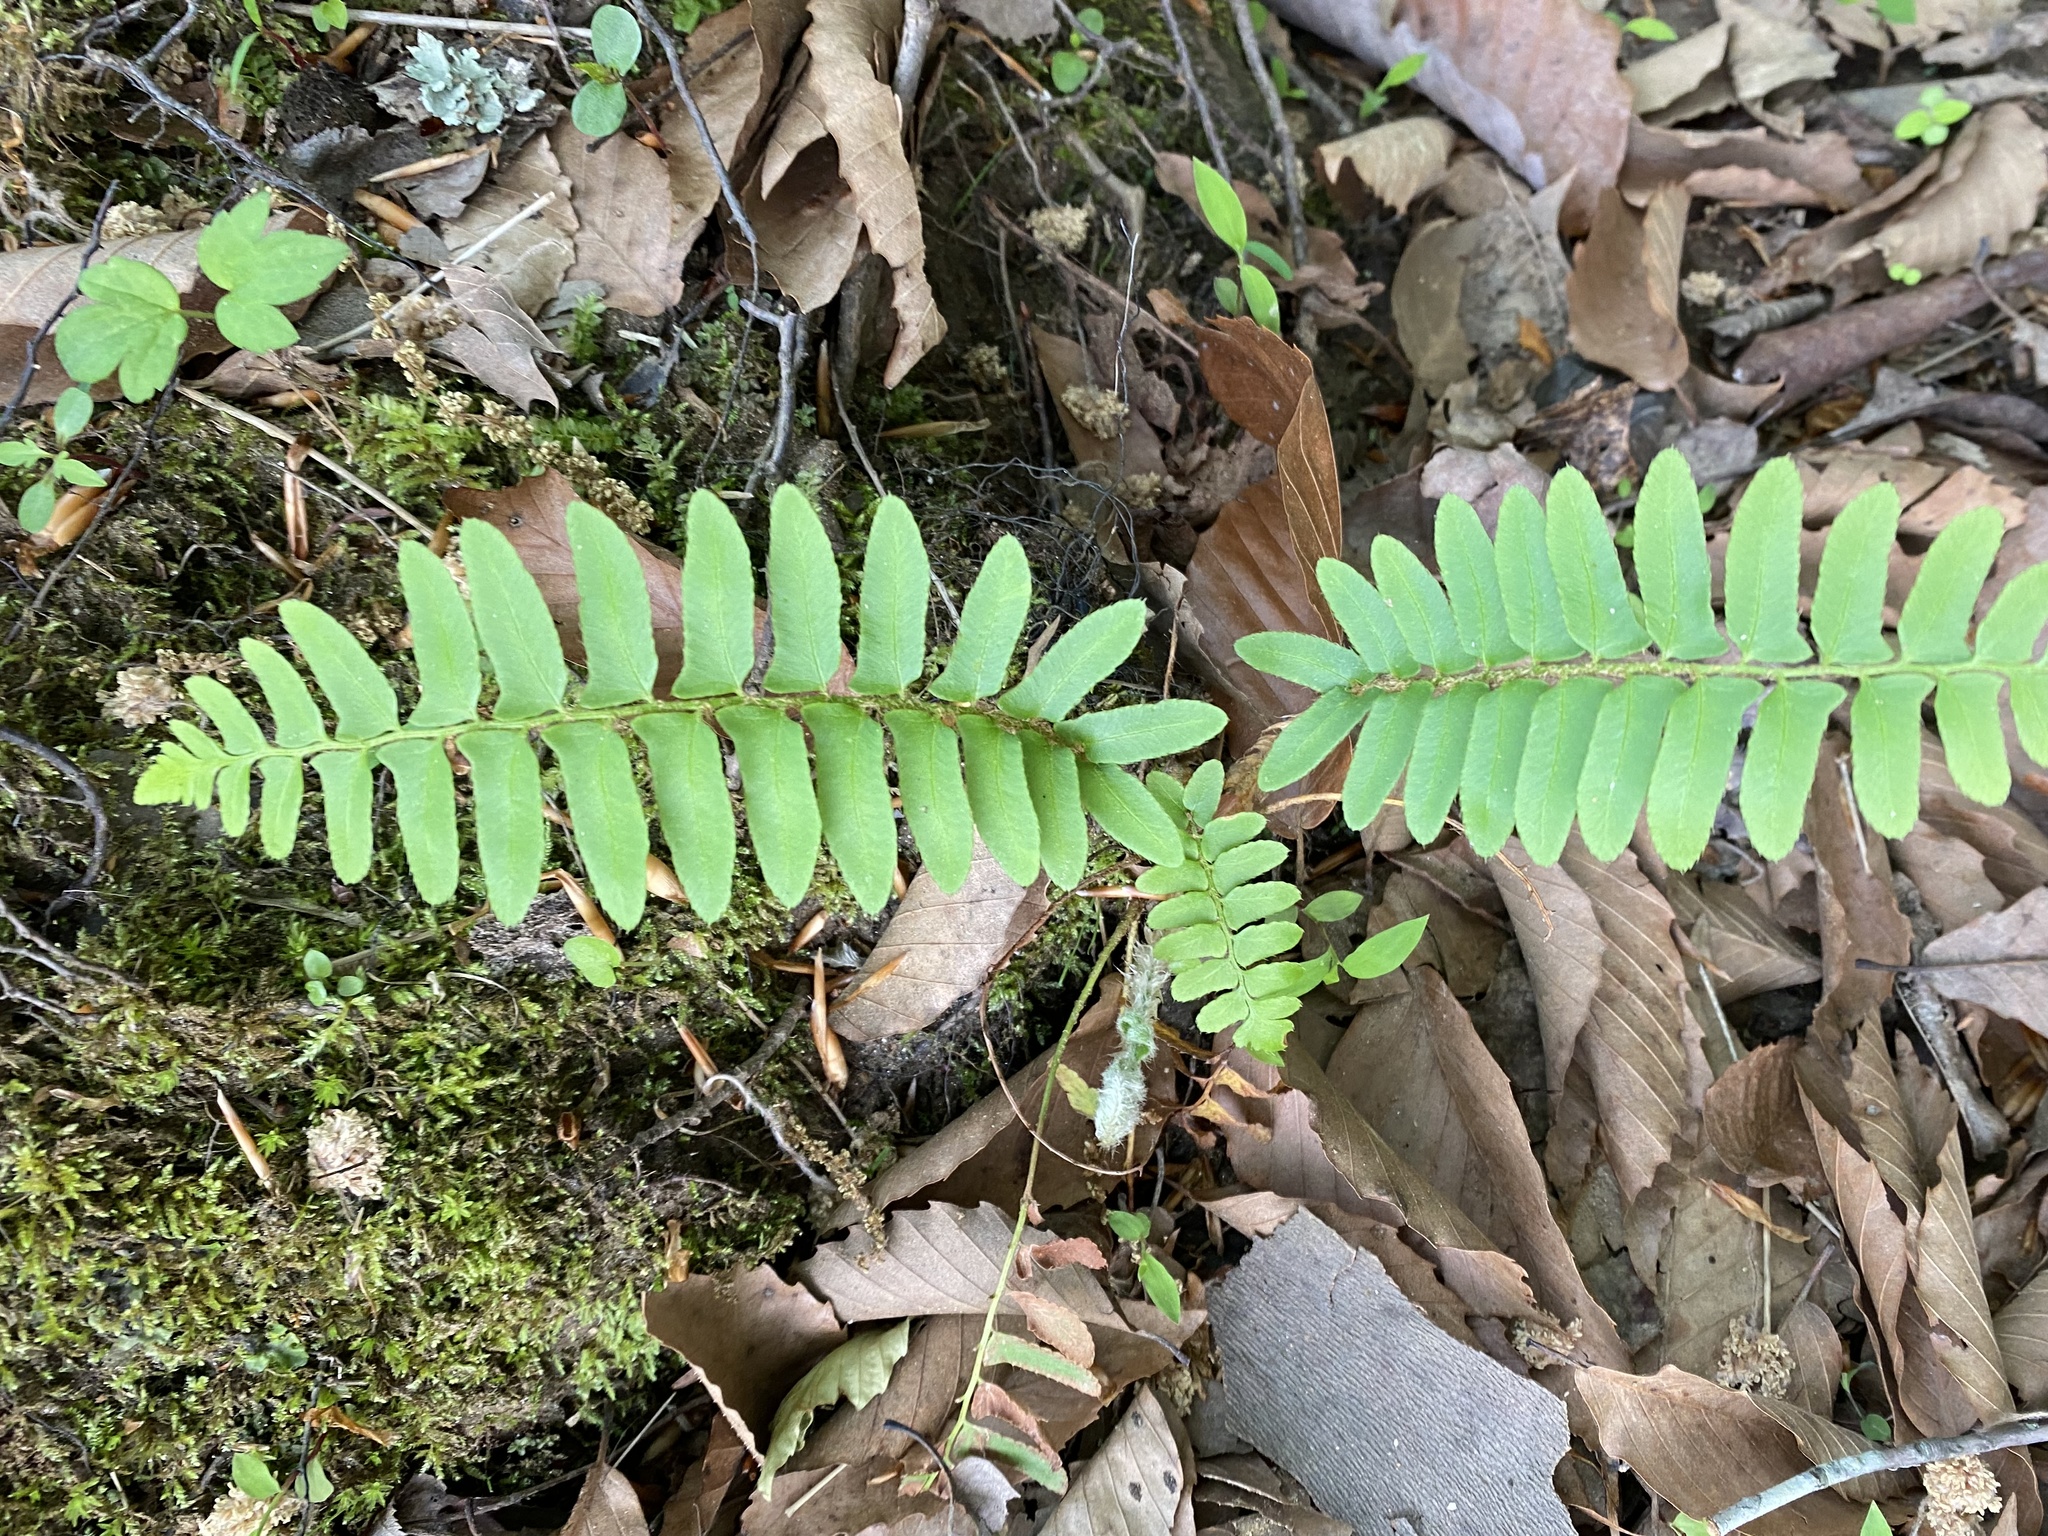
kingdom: Plantae
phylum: Tracheophyta
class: Polypodiopsida
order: Polypodiales
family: Dryopteridaceae
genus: Polystichum
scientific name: Polystichum acrostichoides
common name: Christmas fern
